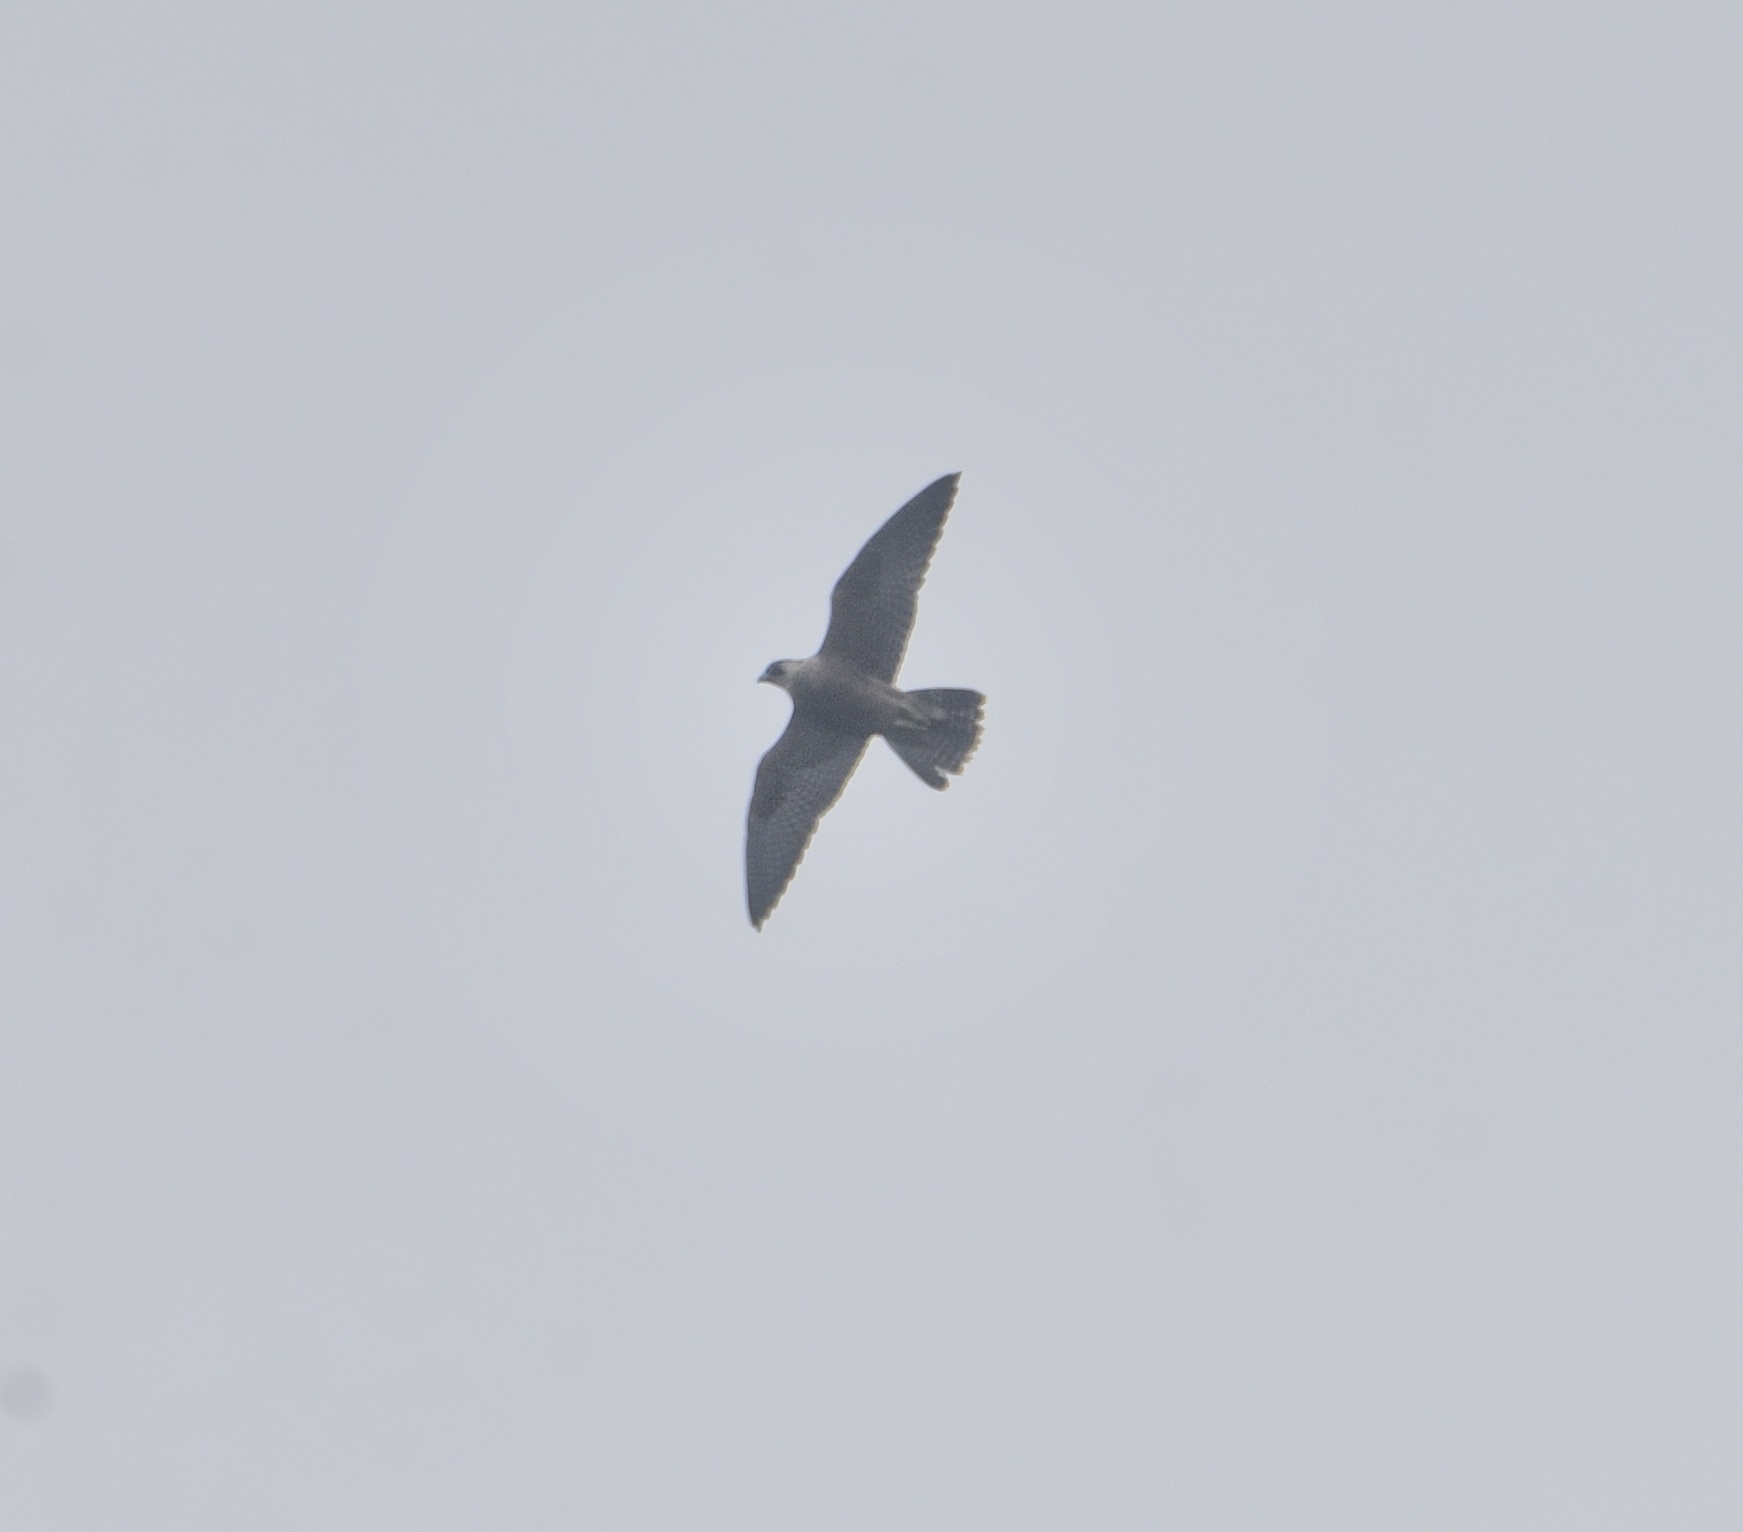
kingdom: Animalia
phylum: Chordata
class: Aves
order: Falconiformes
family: Falconidae
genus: Falco
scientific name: Falco peregrinus
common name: Peregrine falcon
